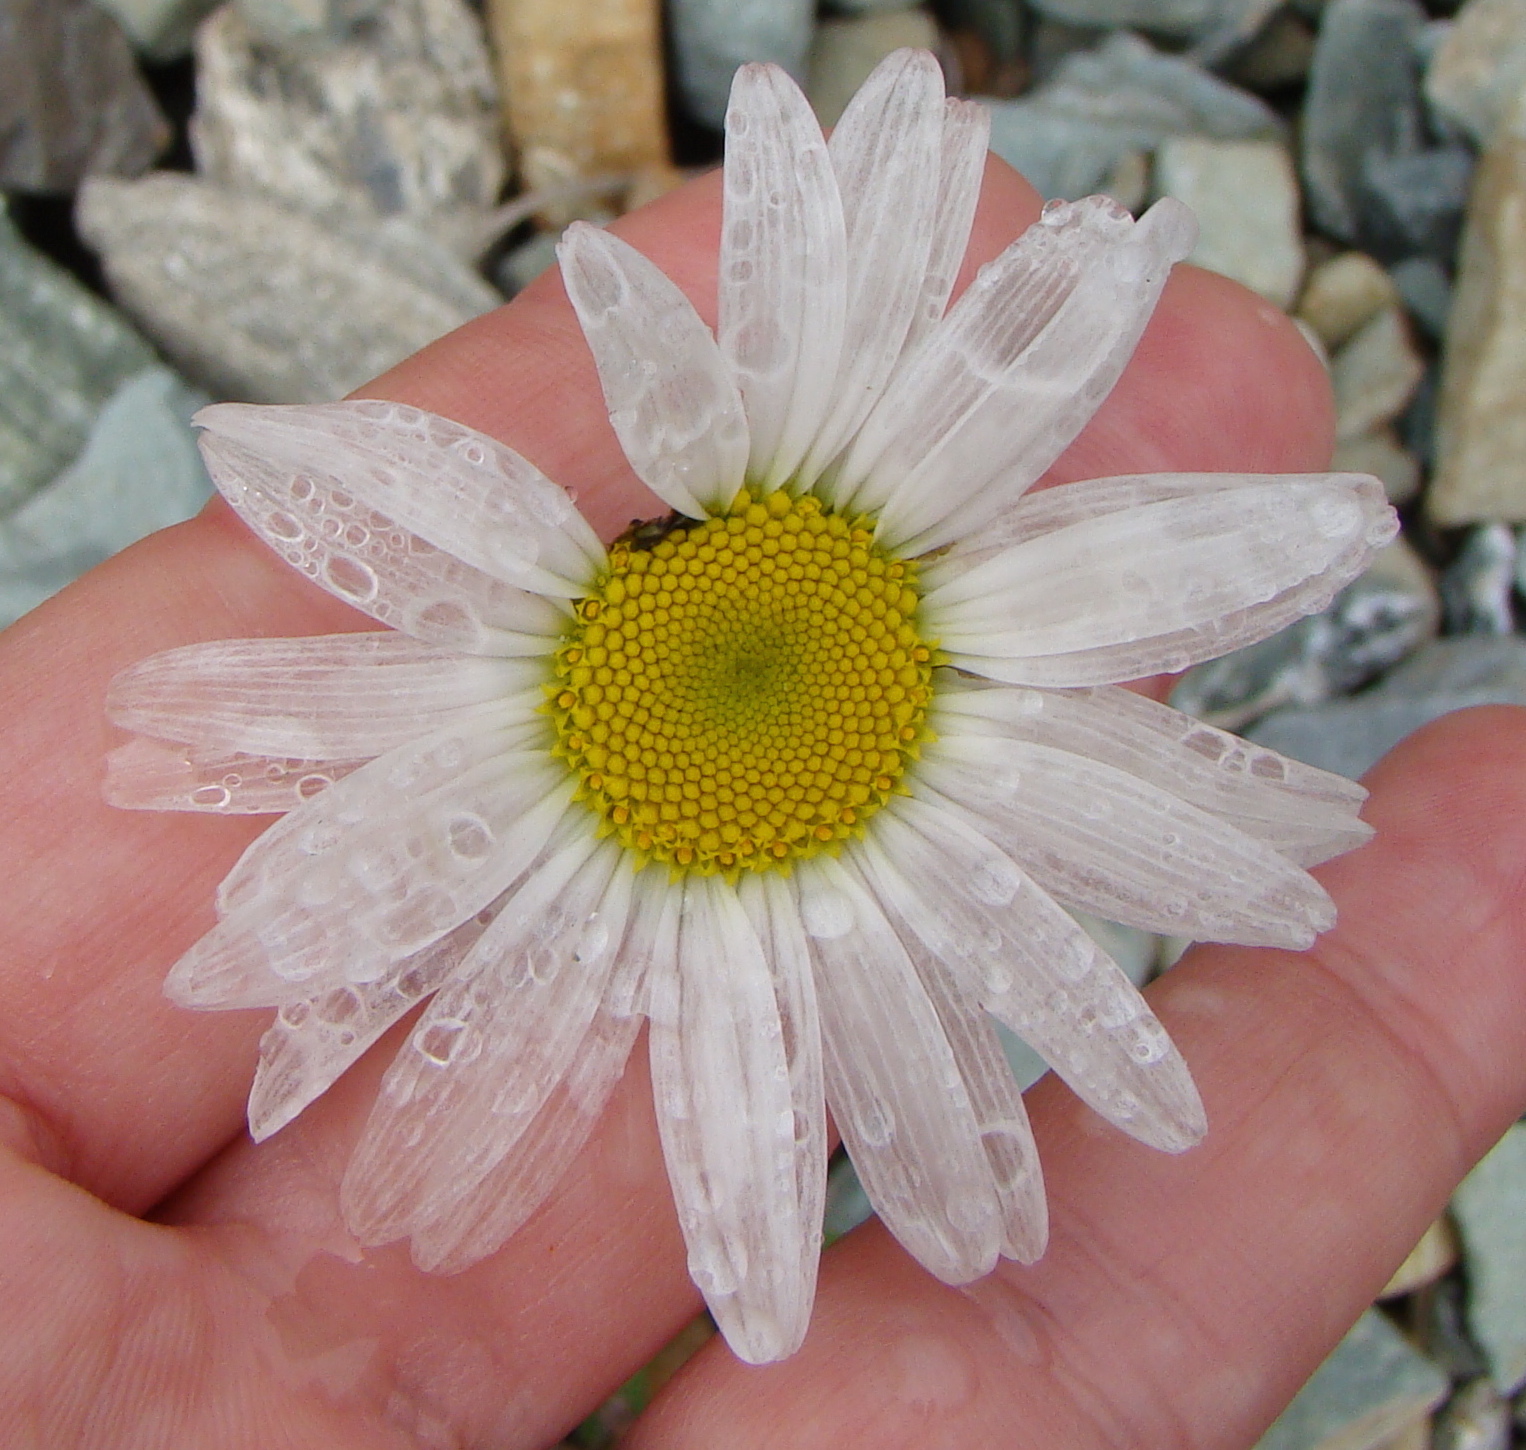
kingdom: Plantae
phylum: Tracheophyta
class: Magnoliopsida
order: Asterales
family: Asteraceae
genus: Leucanthemum
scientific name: Leucanthemum vulgare
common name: Oxeye daisy
